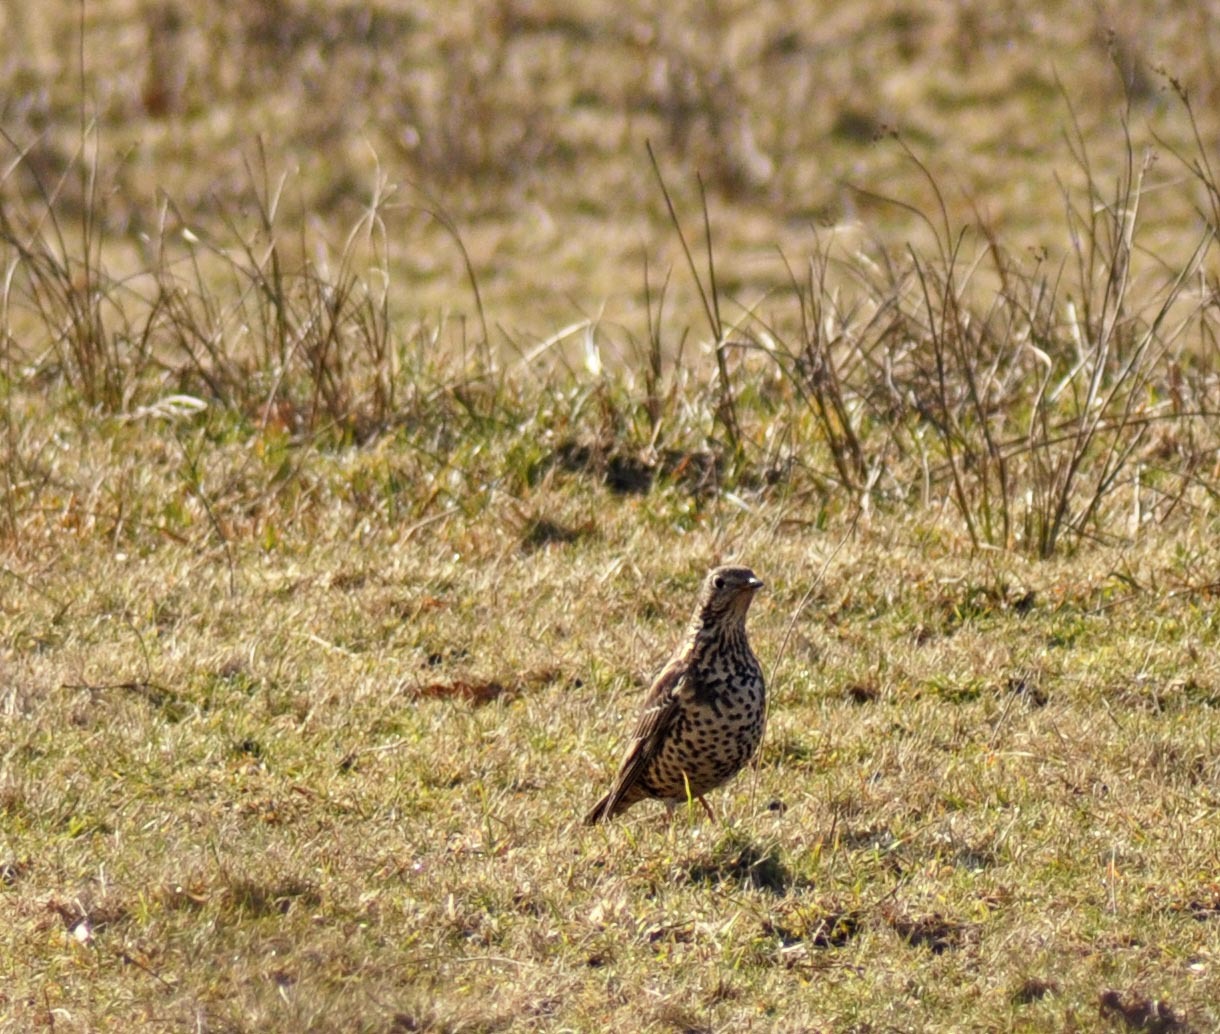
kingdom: Animalia
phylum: Chordata
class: Aves
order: Passeriformes
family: Turdidae
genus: Turdus
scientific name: Turdus viscivorus
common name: Mistle thrush
